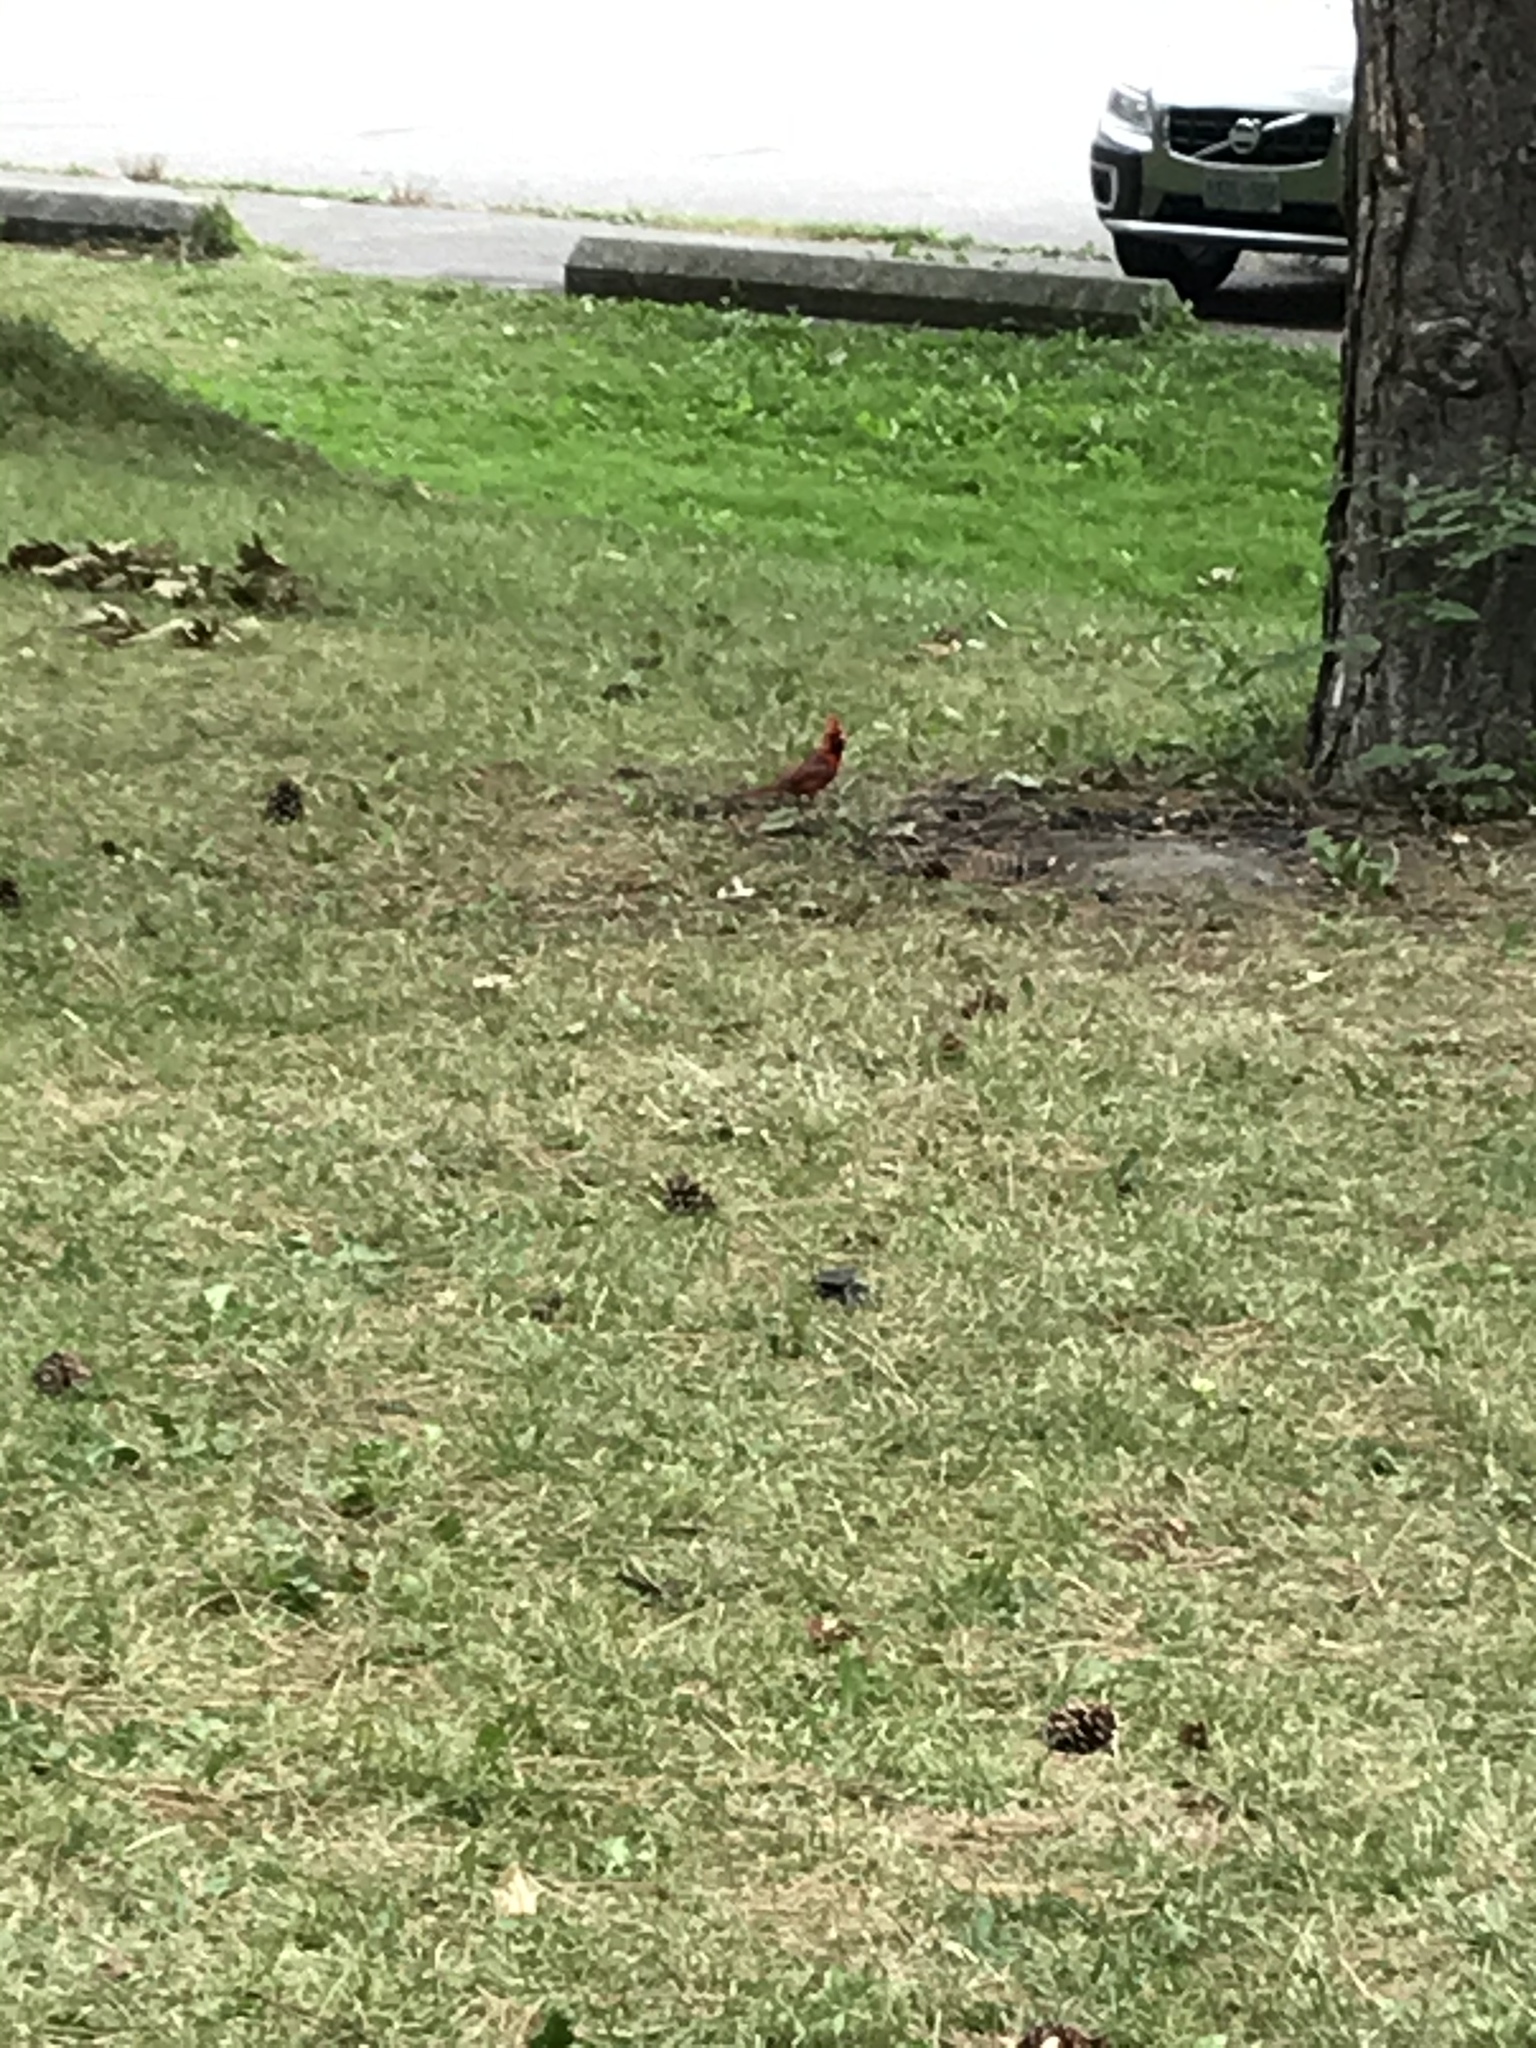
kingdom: Animalia
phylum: Chordata
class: Aves
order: Passeriformes
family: Cardinalidae
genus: Cardinalis
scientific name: Cardinalis cardinalis
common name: Northern cardinal
